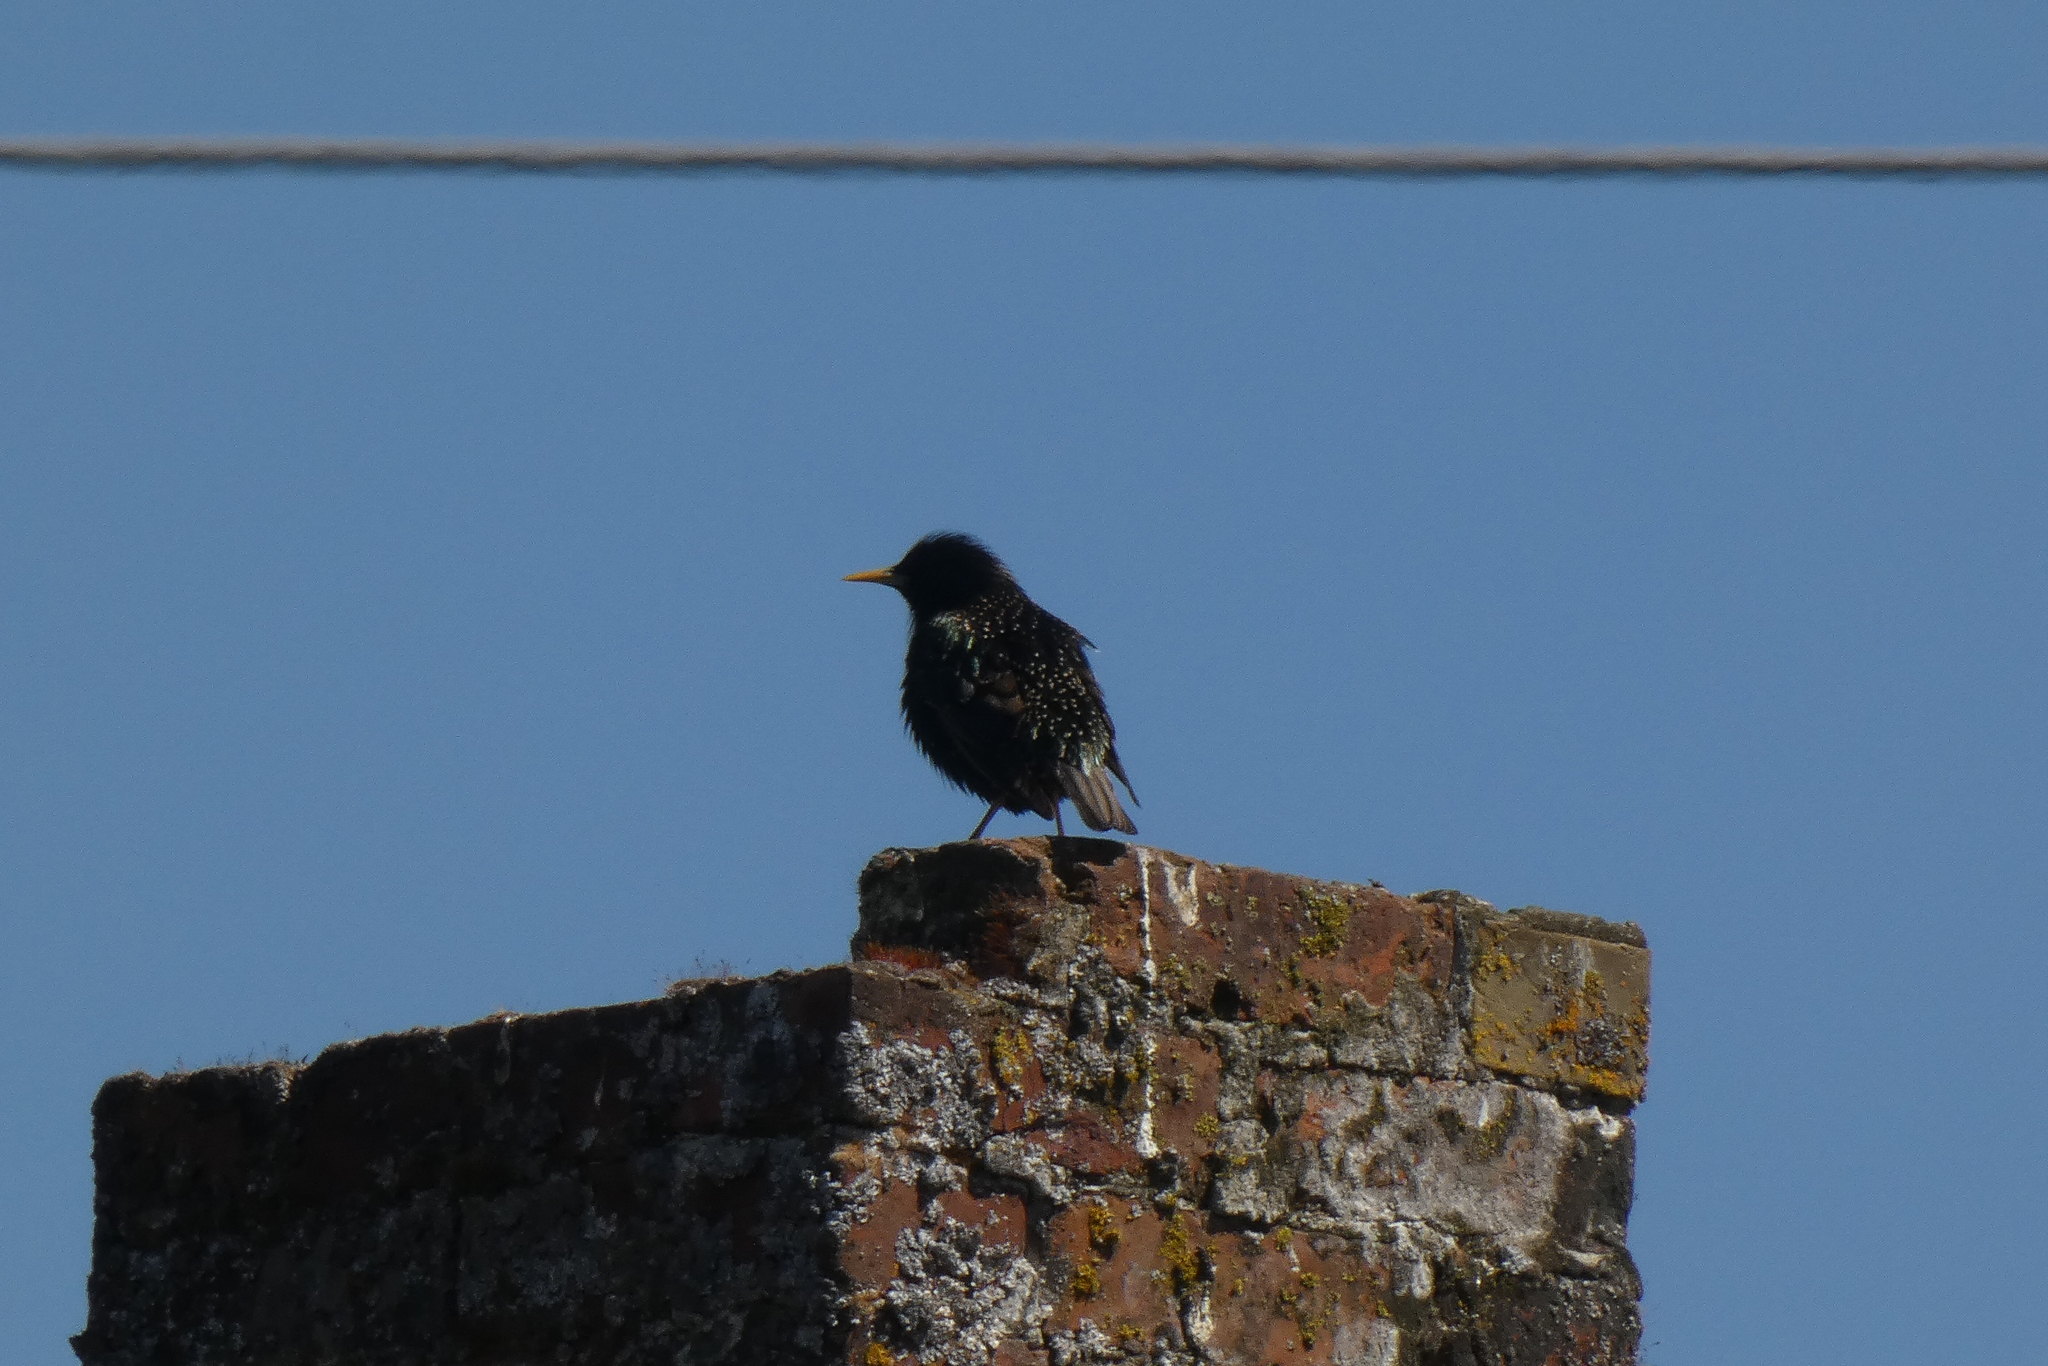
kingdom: Animalia
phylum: Chordata
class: Aves
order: Passeriformes
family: Sturnidae
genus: Sturnus
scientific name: Sturnus vulgaris
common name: Common starling
